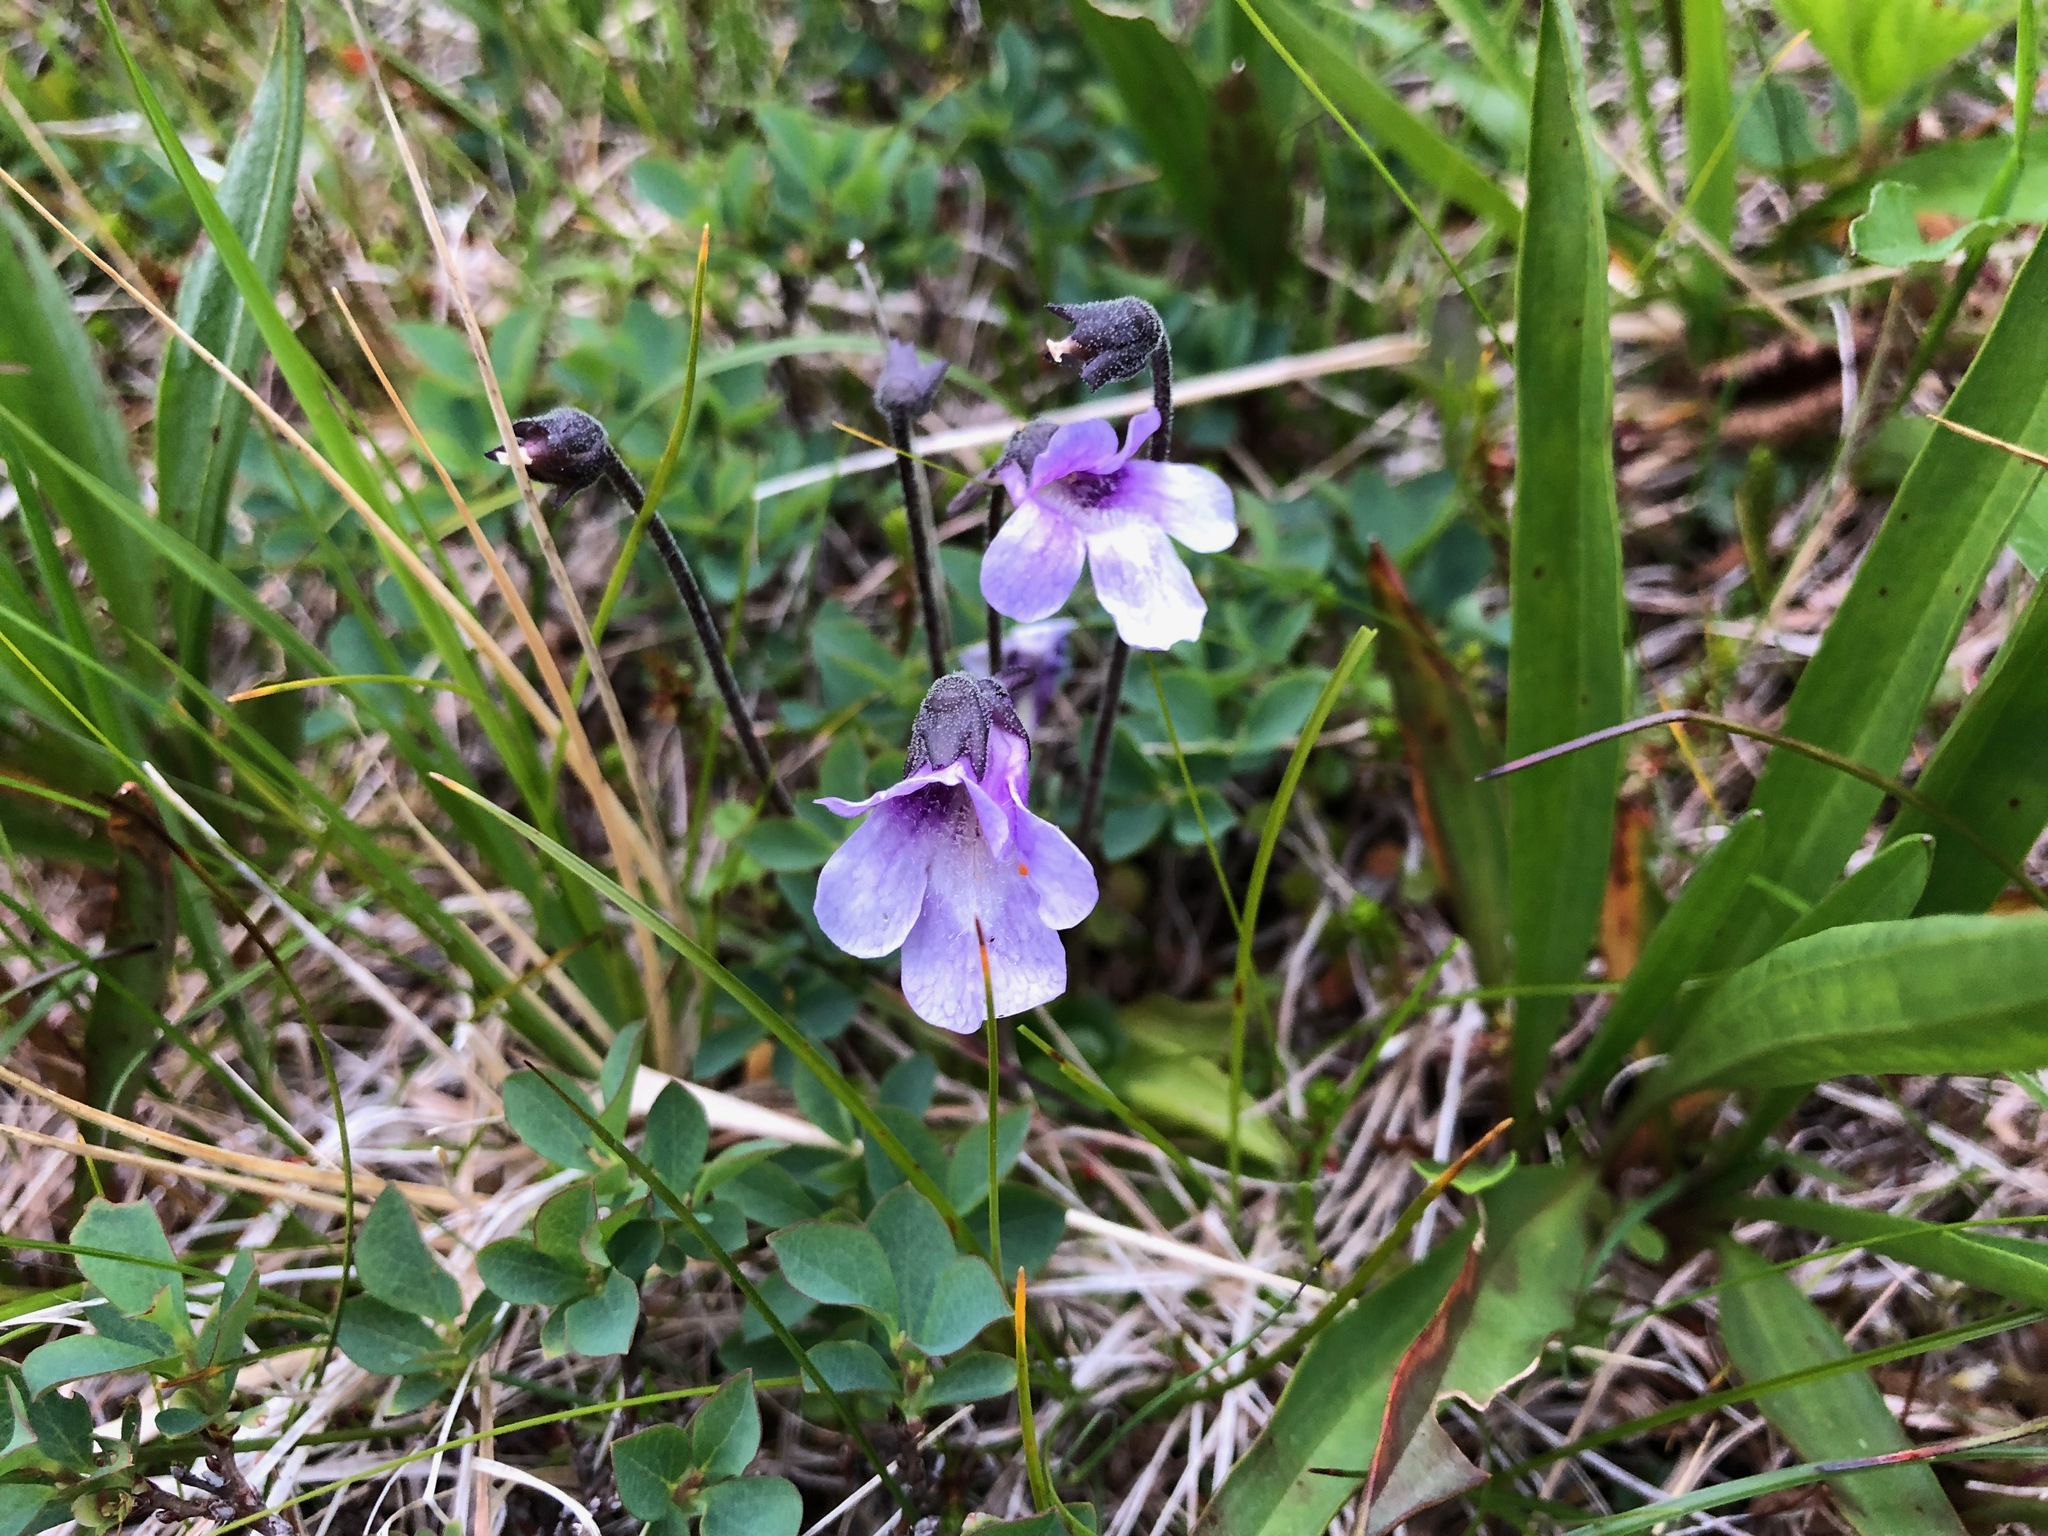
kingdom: Plantae
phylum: Tracheophyta
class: Magnoliopsida
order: Lamiales
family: Lentibulariaceae
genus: Pinguicula
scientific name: Pinguicula vulgaris
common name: Common butterwort
